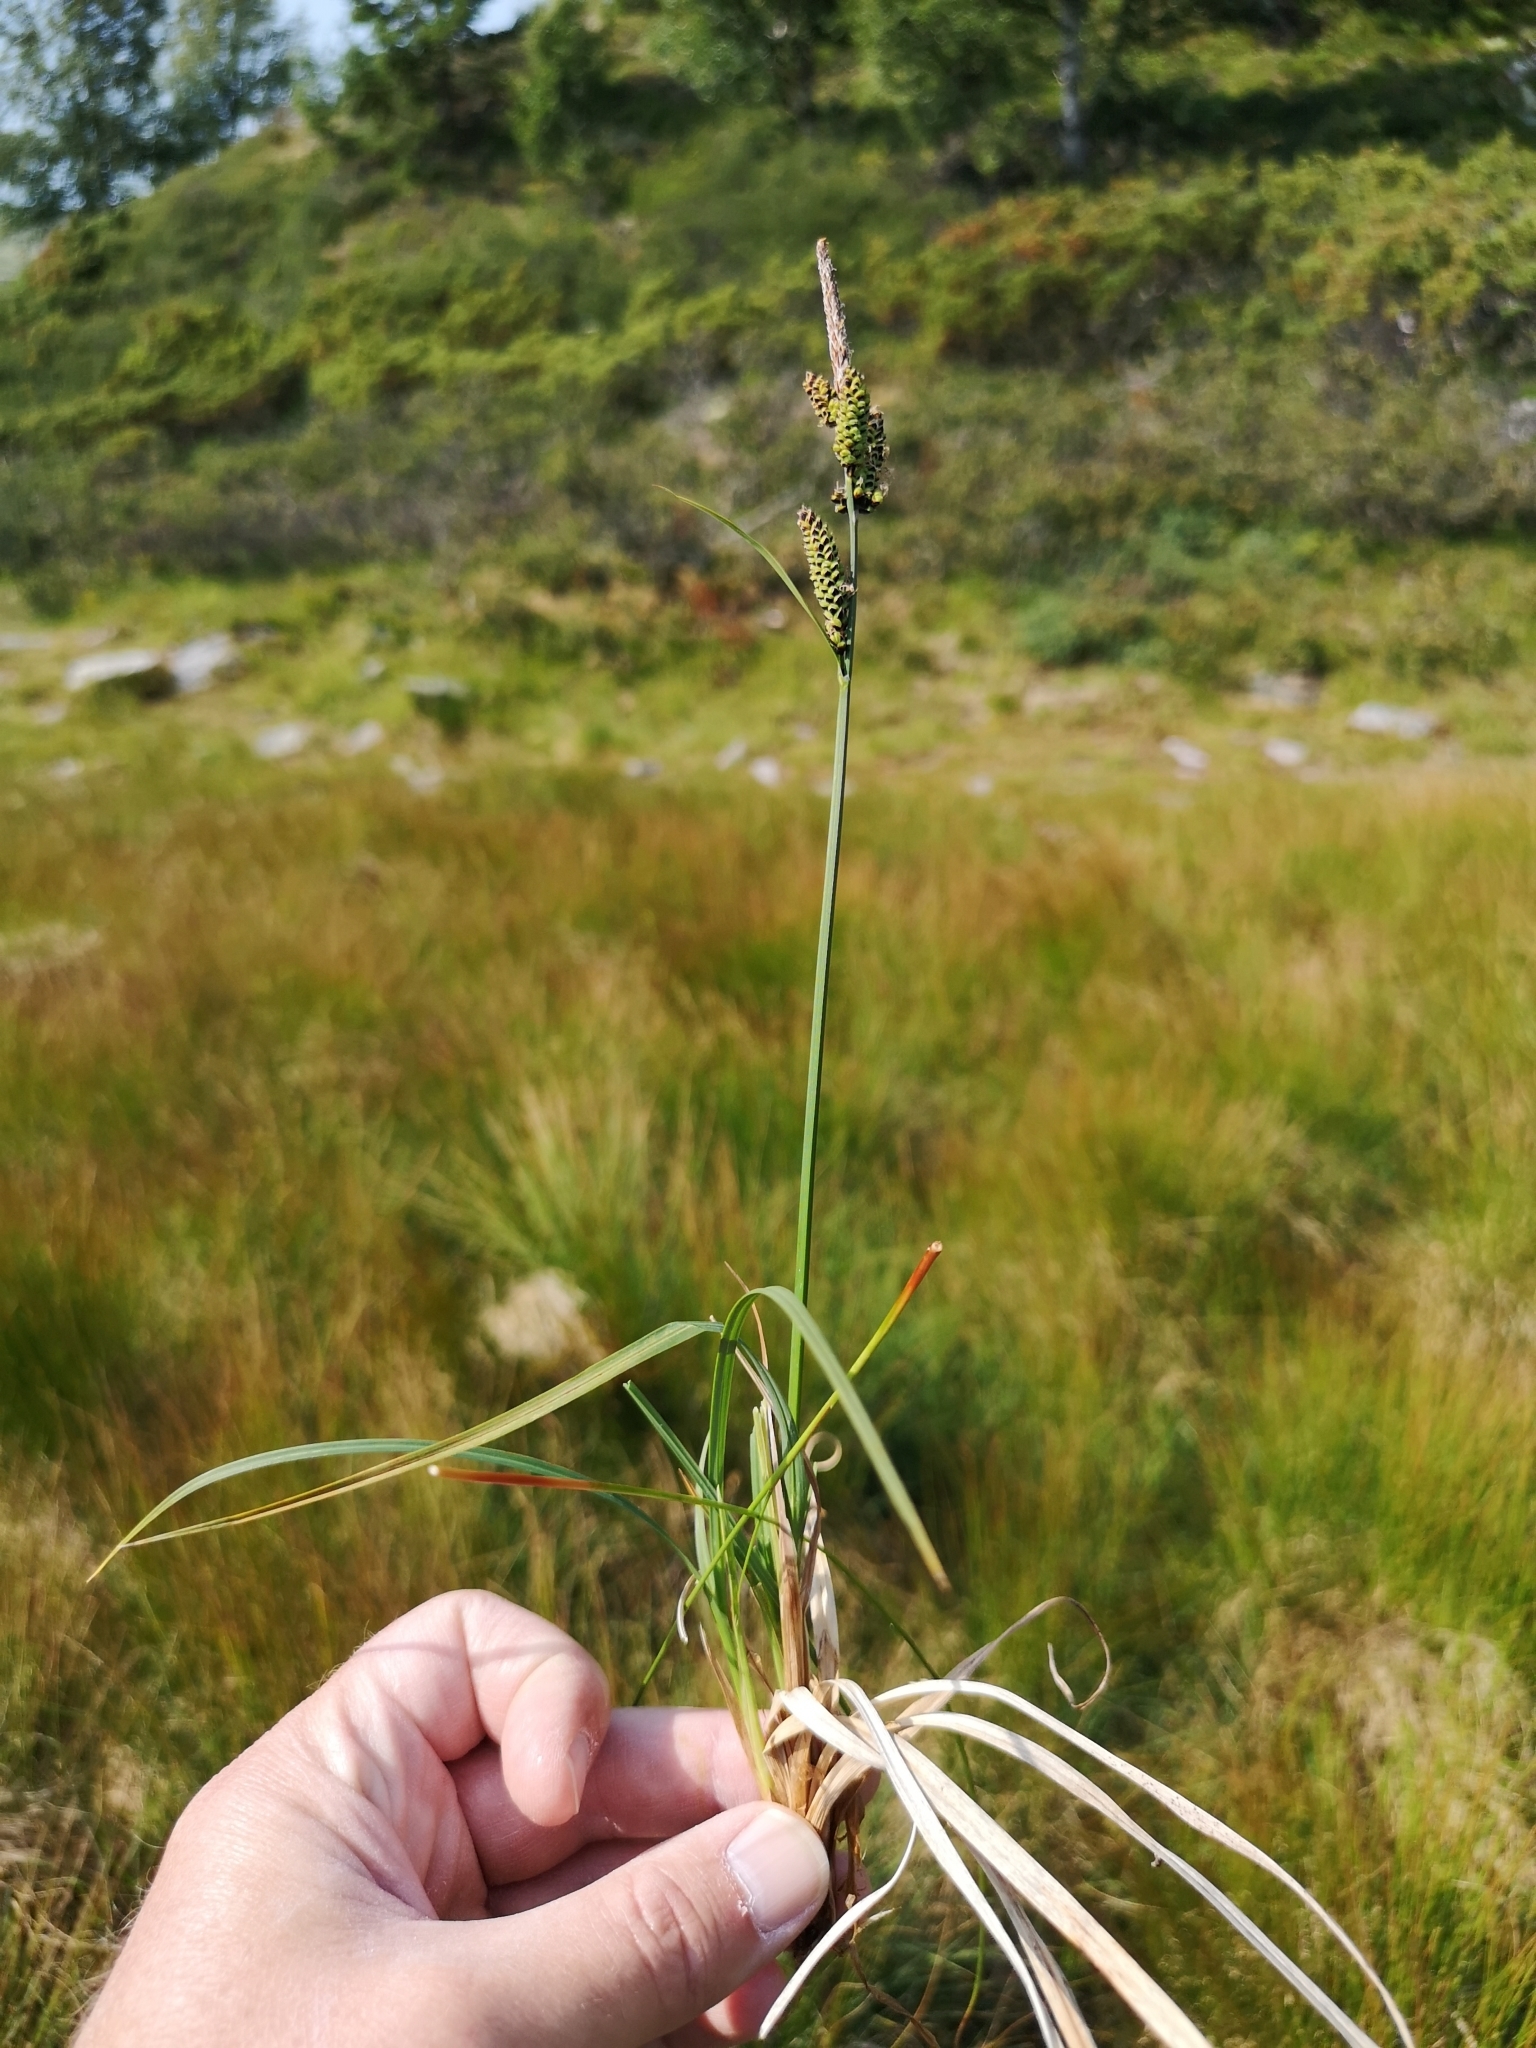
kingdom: Plantae
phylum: Tracheophyta
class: Liliopsida
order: Poales
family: Cyperaceae
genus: Carex
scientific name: Carex nigra
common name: Common sedge
